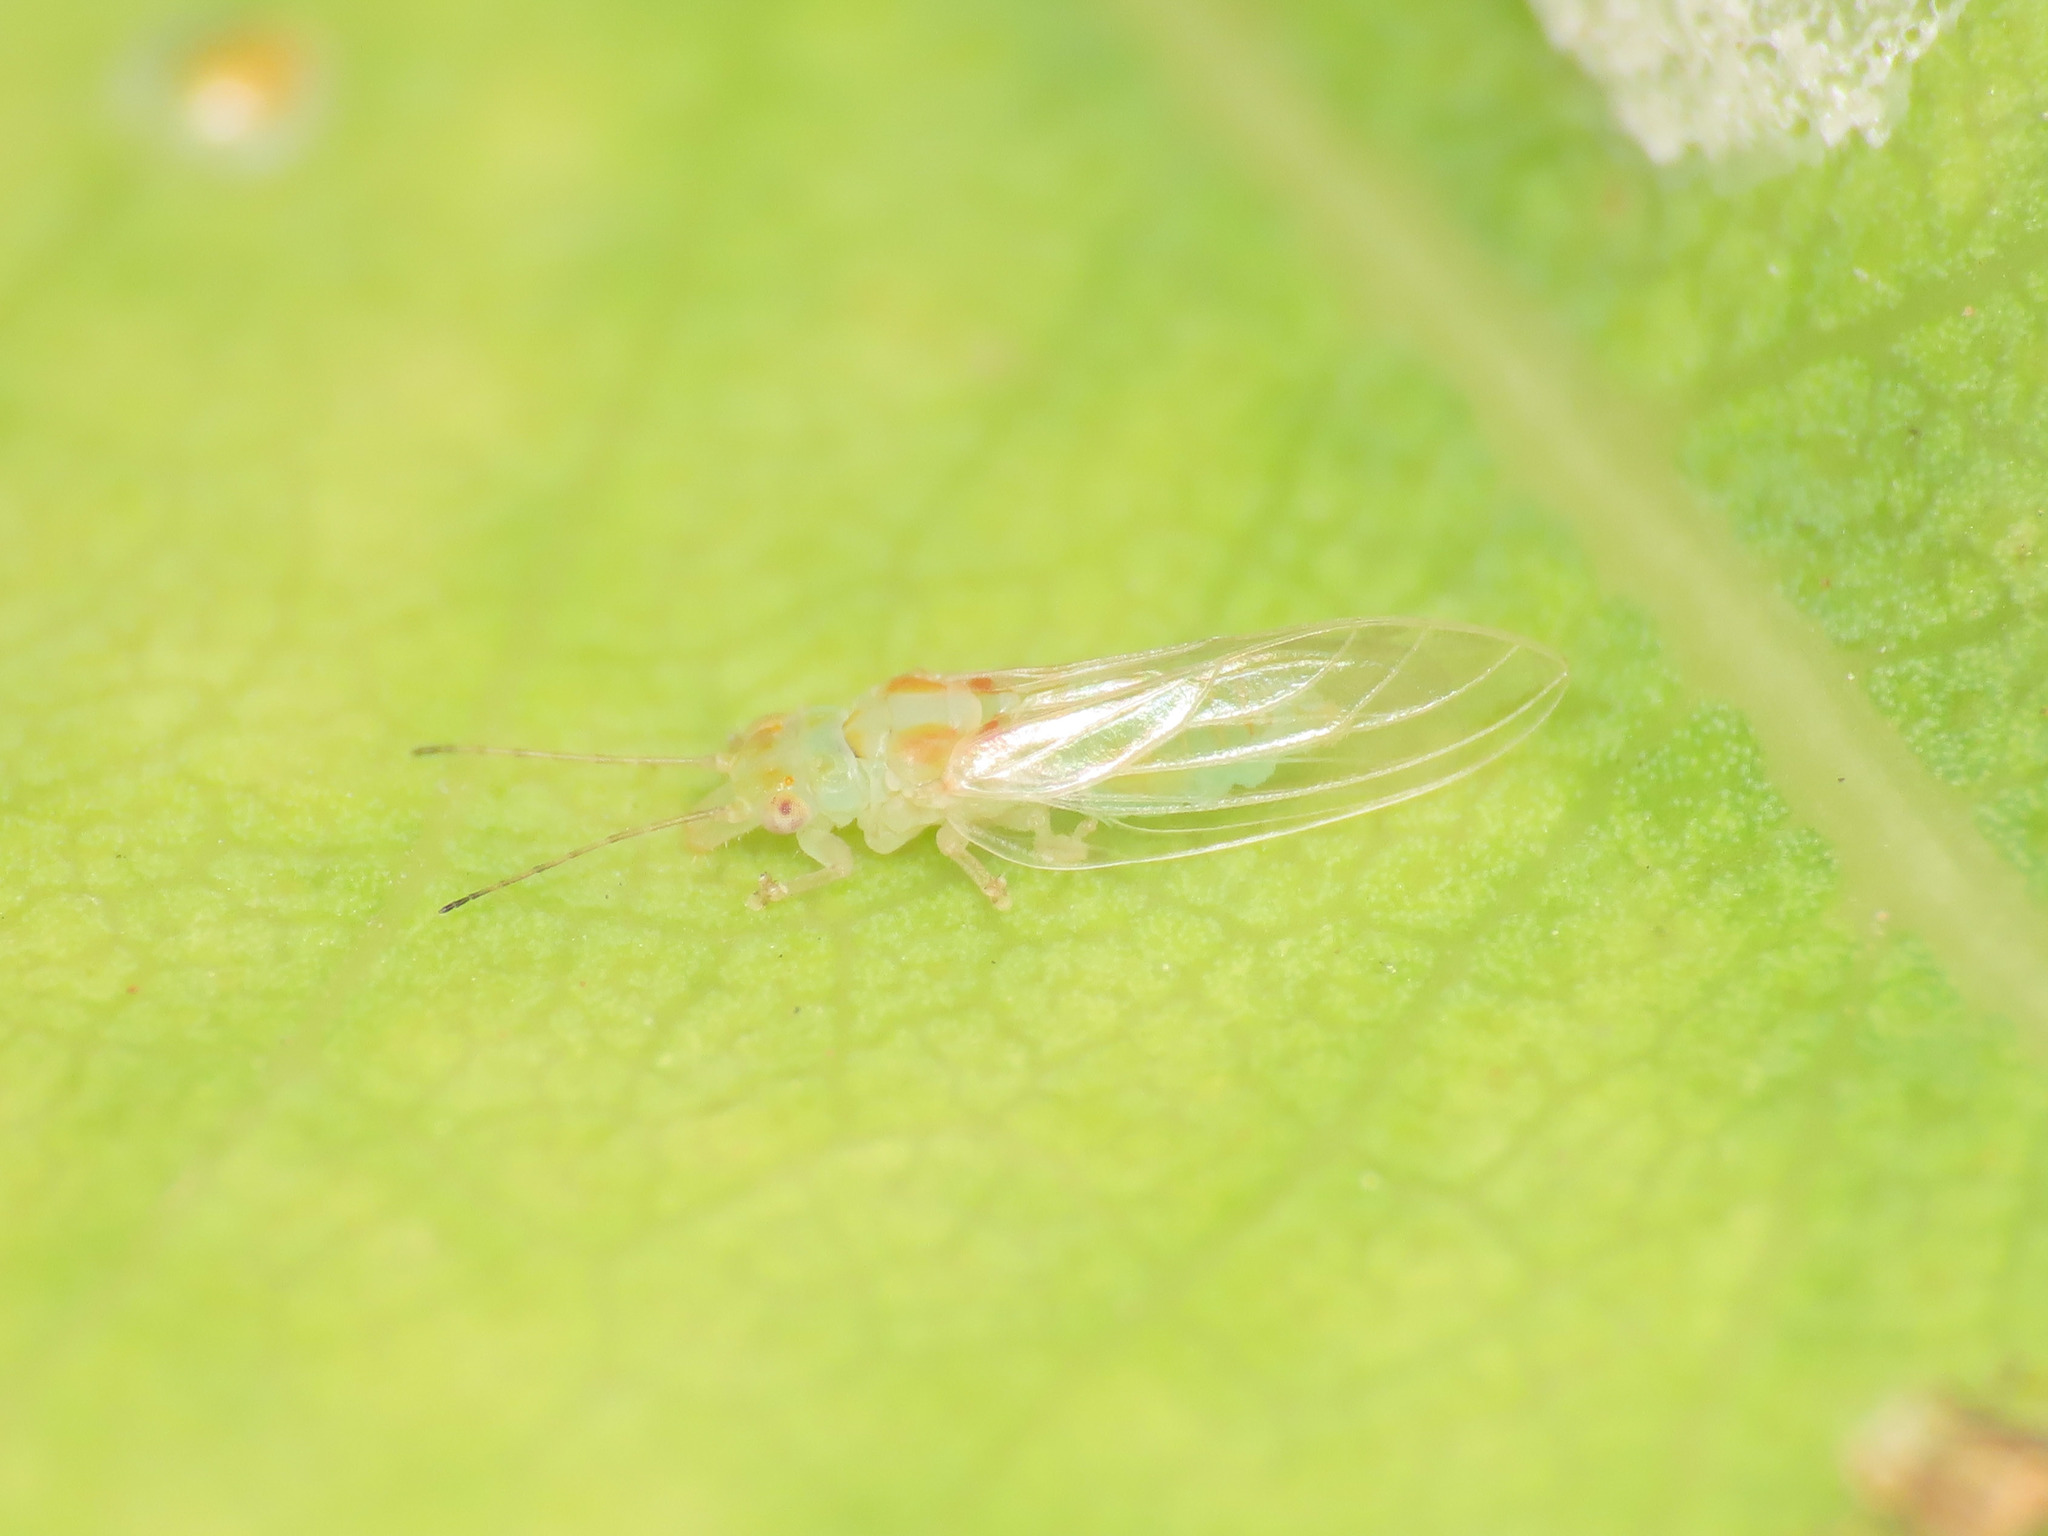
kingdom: Animalia
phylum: Arthropoda
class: Insecta
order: Hemiptera
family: Aphalaridae
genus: Glycaspis
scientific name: Glycaspis brimblecombei
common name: Red gum lerp psyllid
